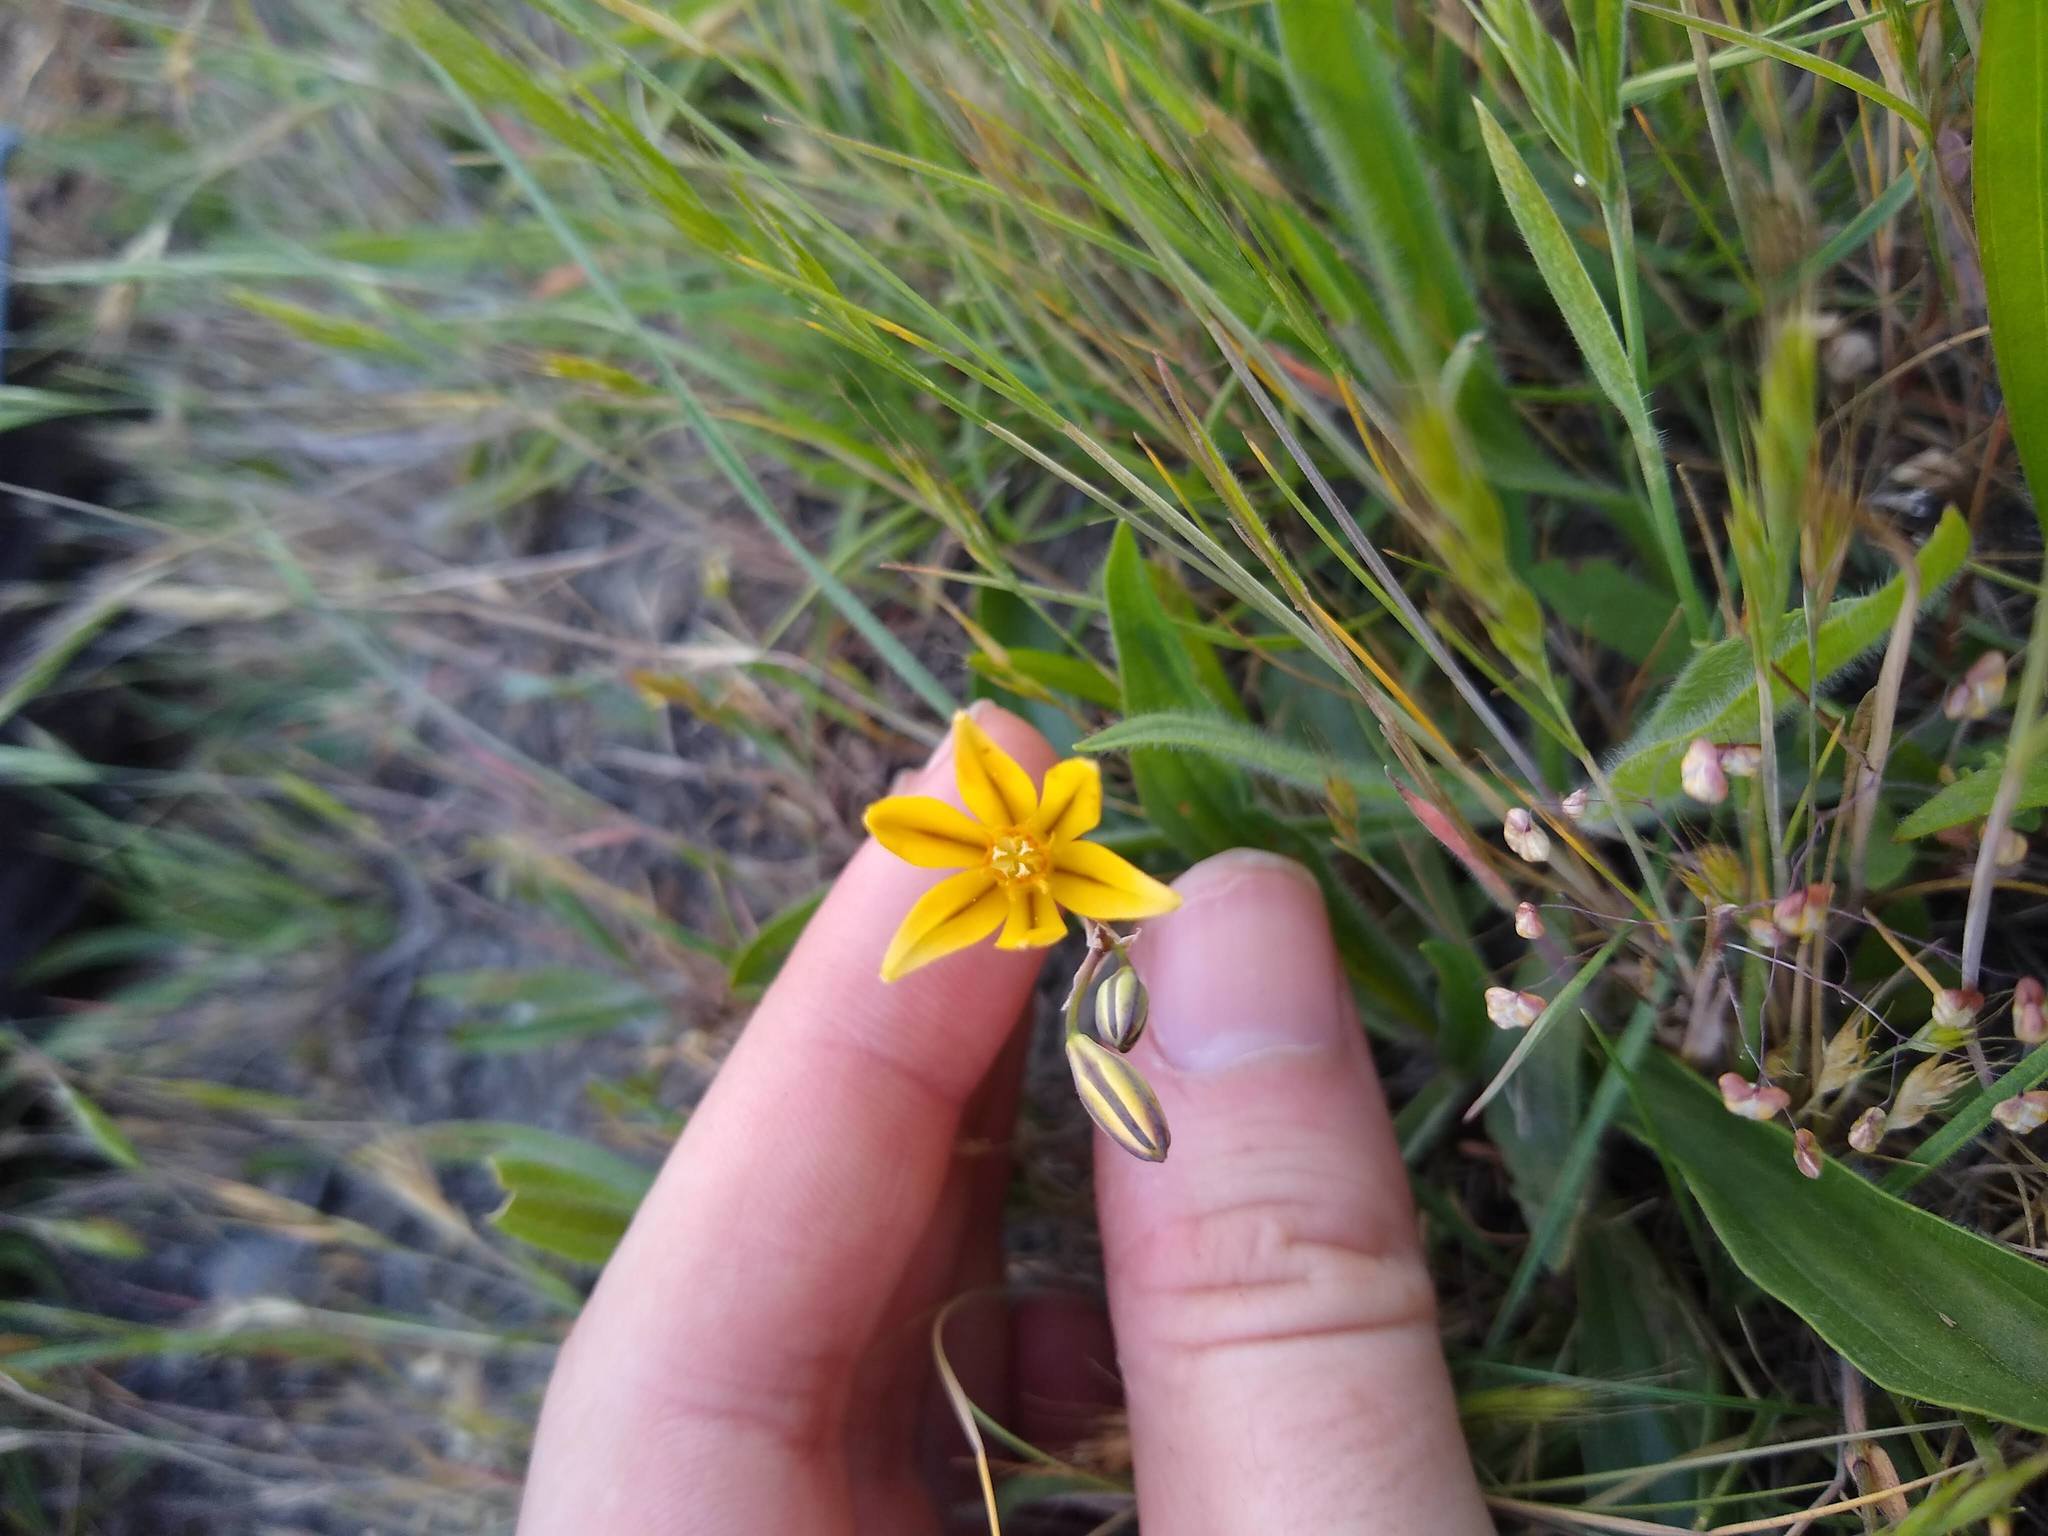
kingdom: Plantae
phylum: Tracheophyta
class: Liliopsida
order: Asparagales
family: Asparagaceae
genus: Triteleia
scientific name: Triteleia ixioides
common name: Yellow-brodiaea
